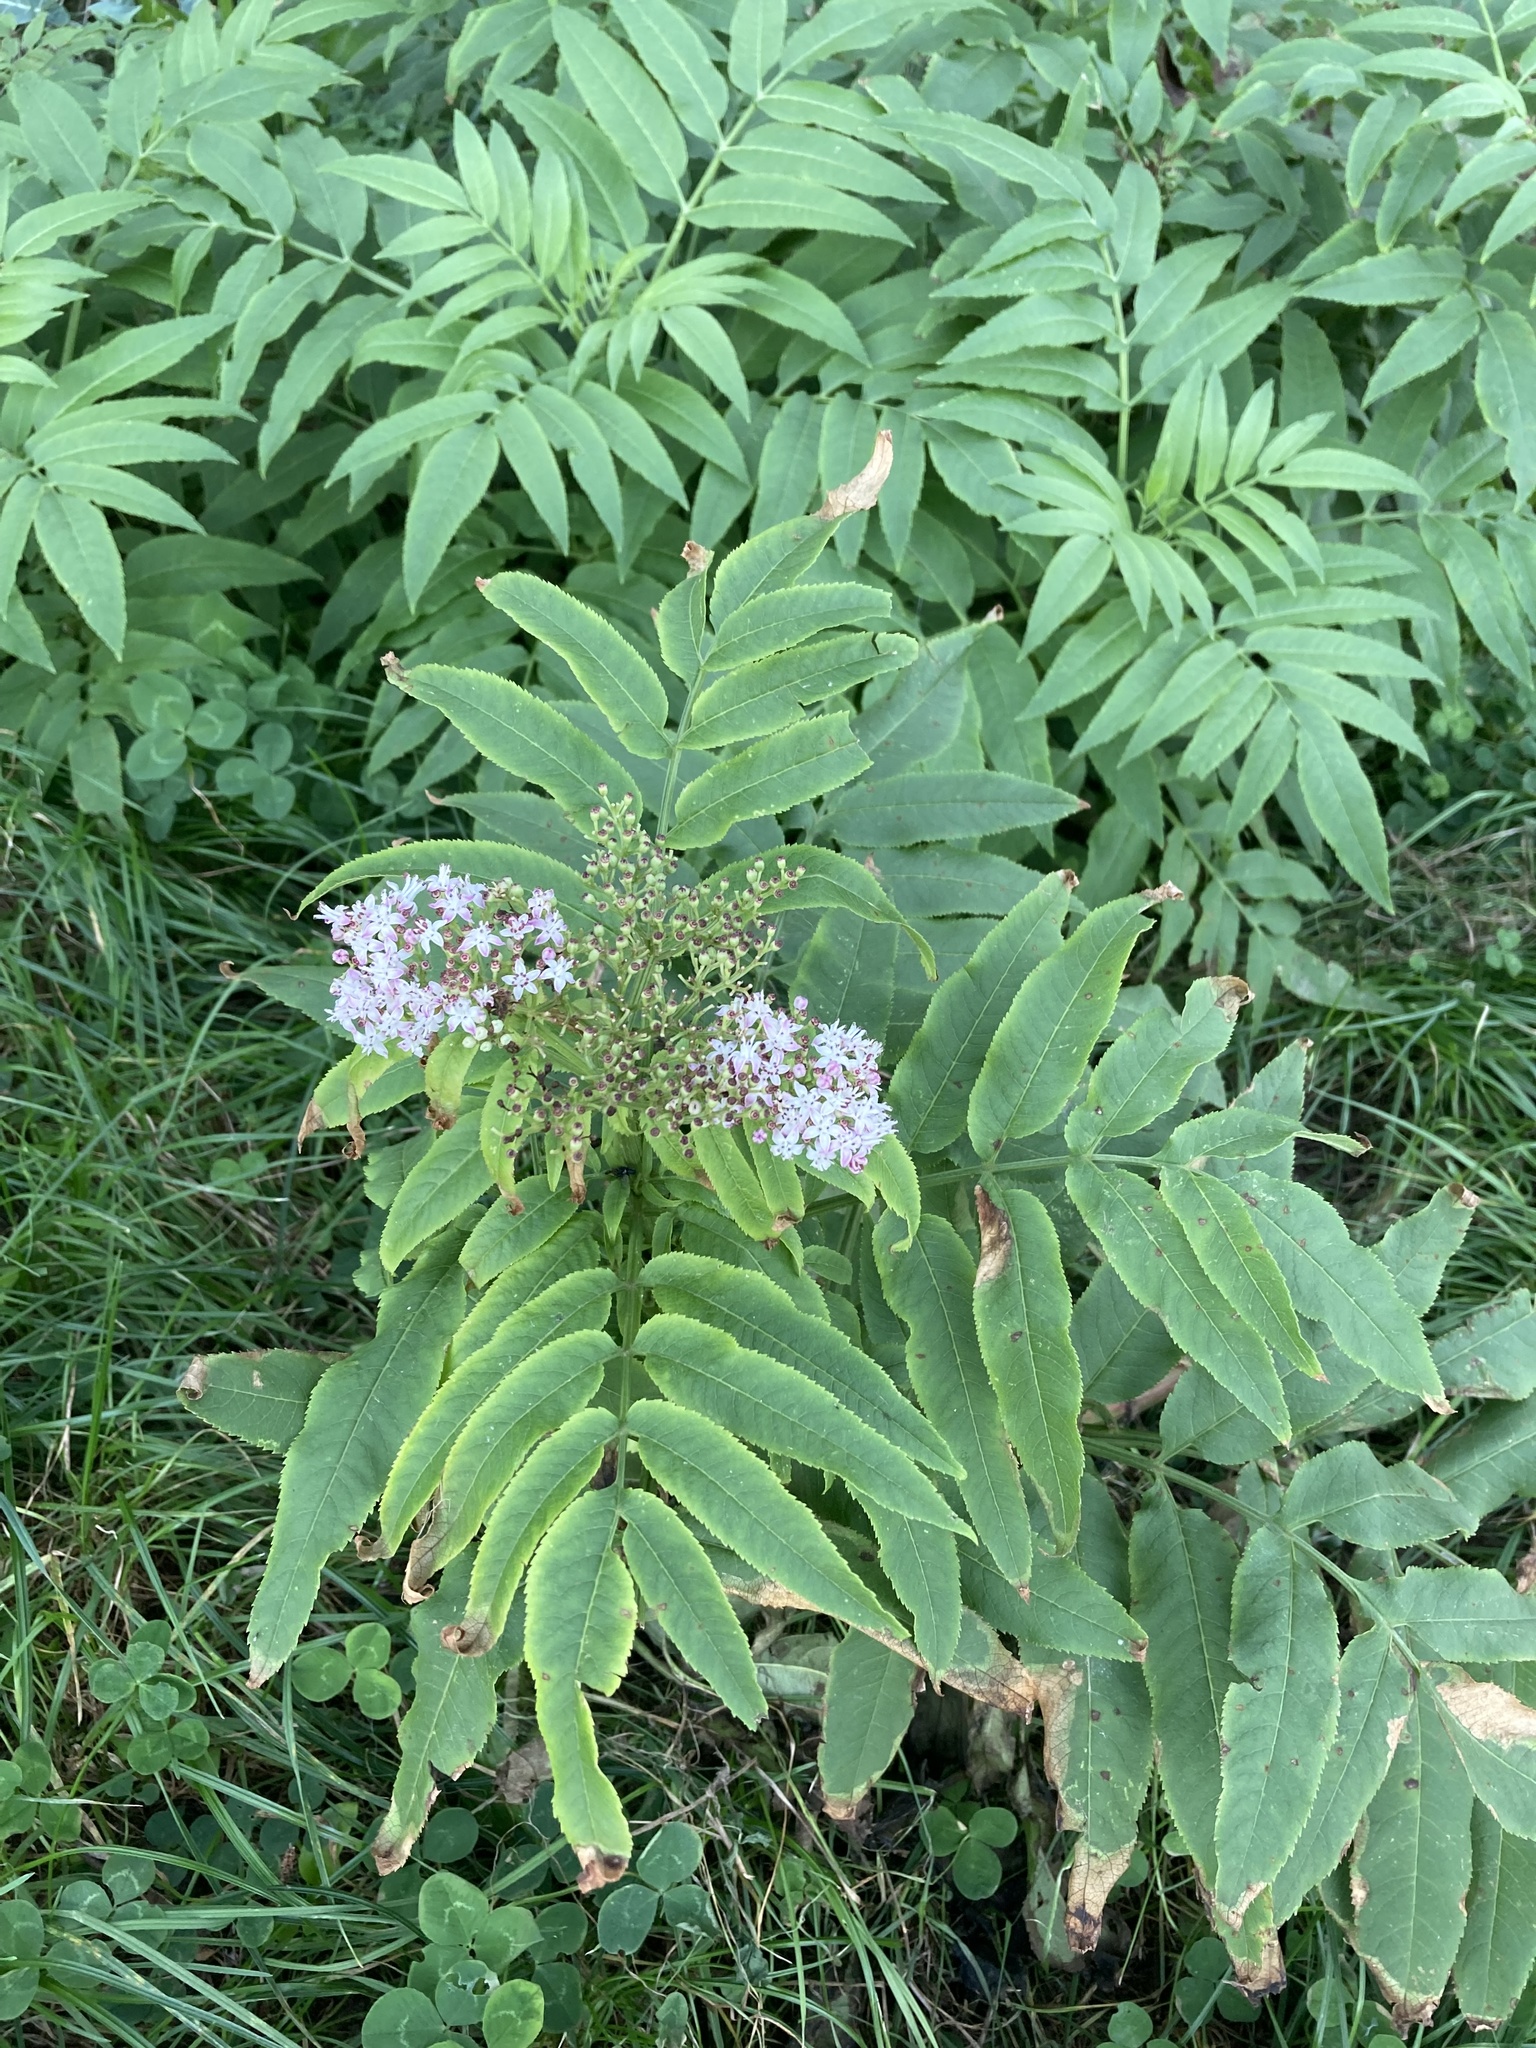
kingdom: Plantae
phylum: Tracheophyta
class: Magnoliopsida
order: Dipsacales
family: Viburnaceae
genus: Sambucus
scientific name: Sambucus ebulus
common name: Dwarf elder
